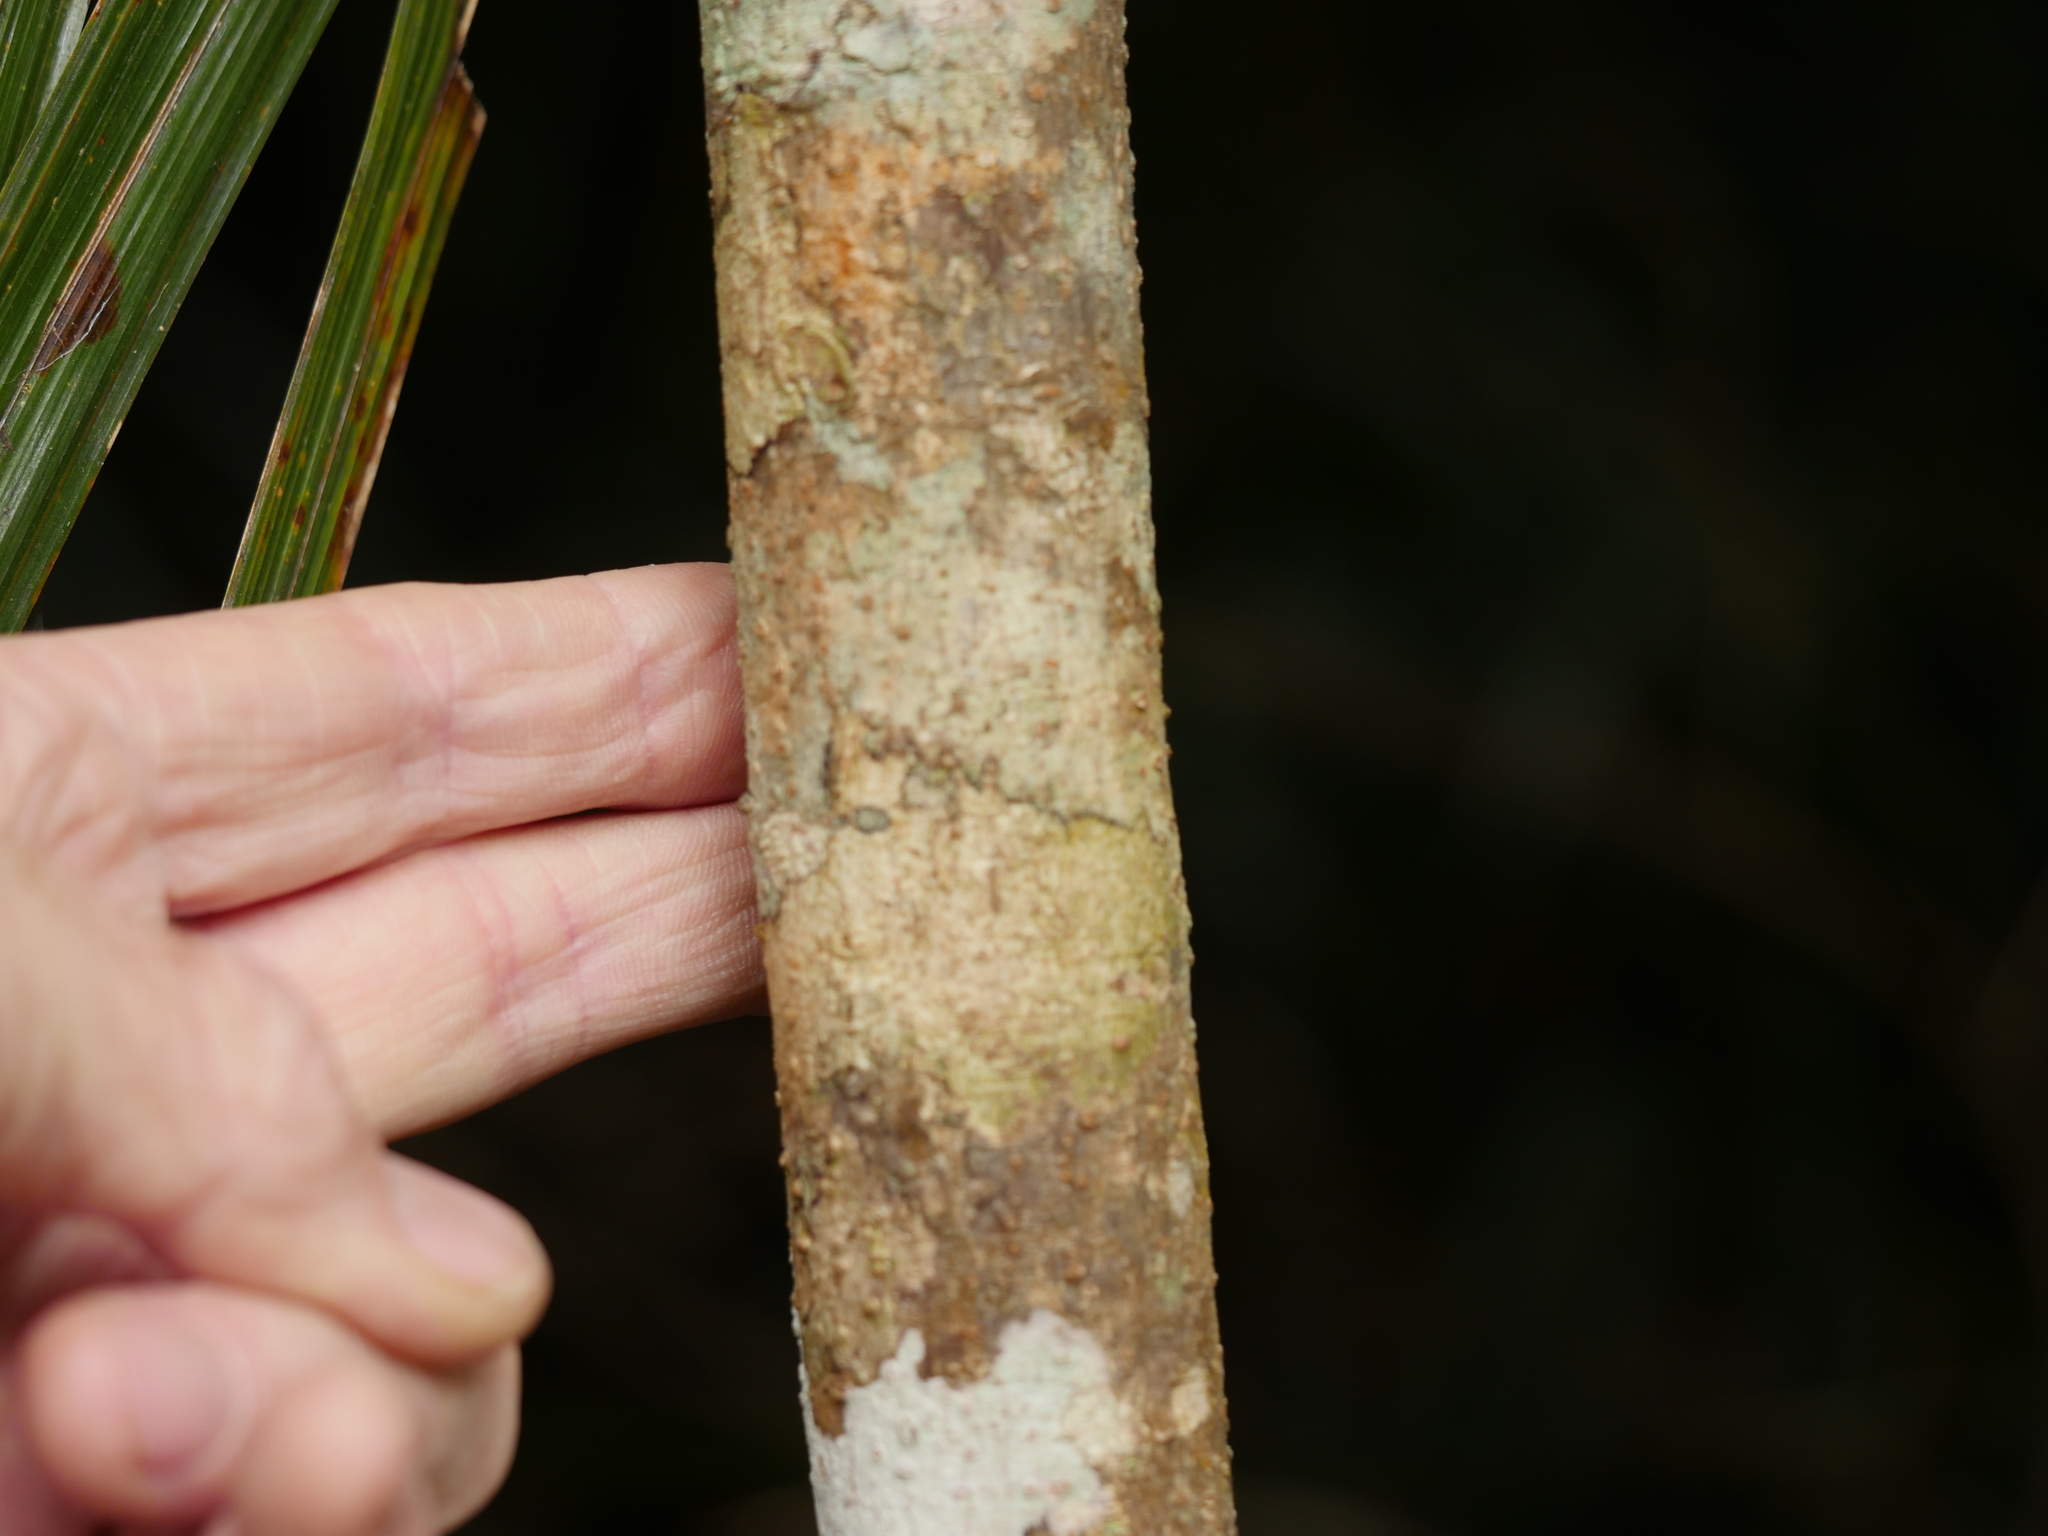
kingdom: Plantae
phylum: Tracheophyta
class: Magnoliopsida
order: Apiales
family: Araliaceae
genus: Raukaua
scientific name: Raukaua edgerleyi
